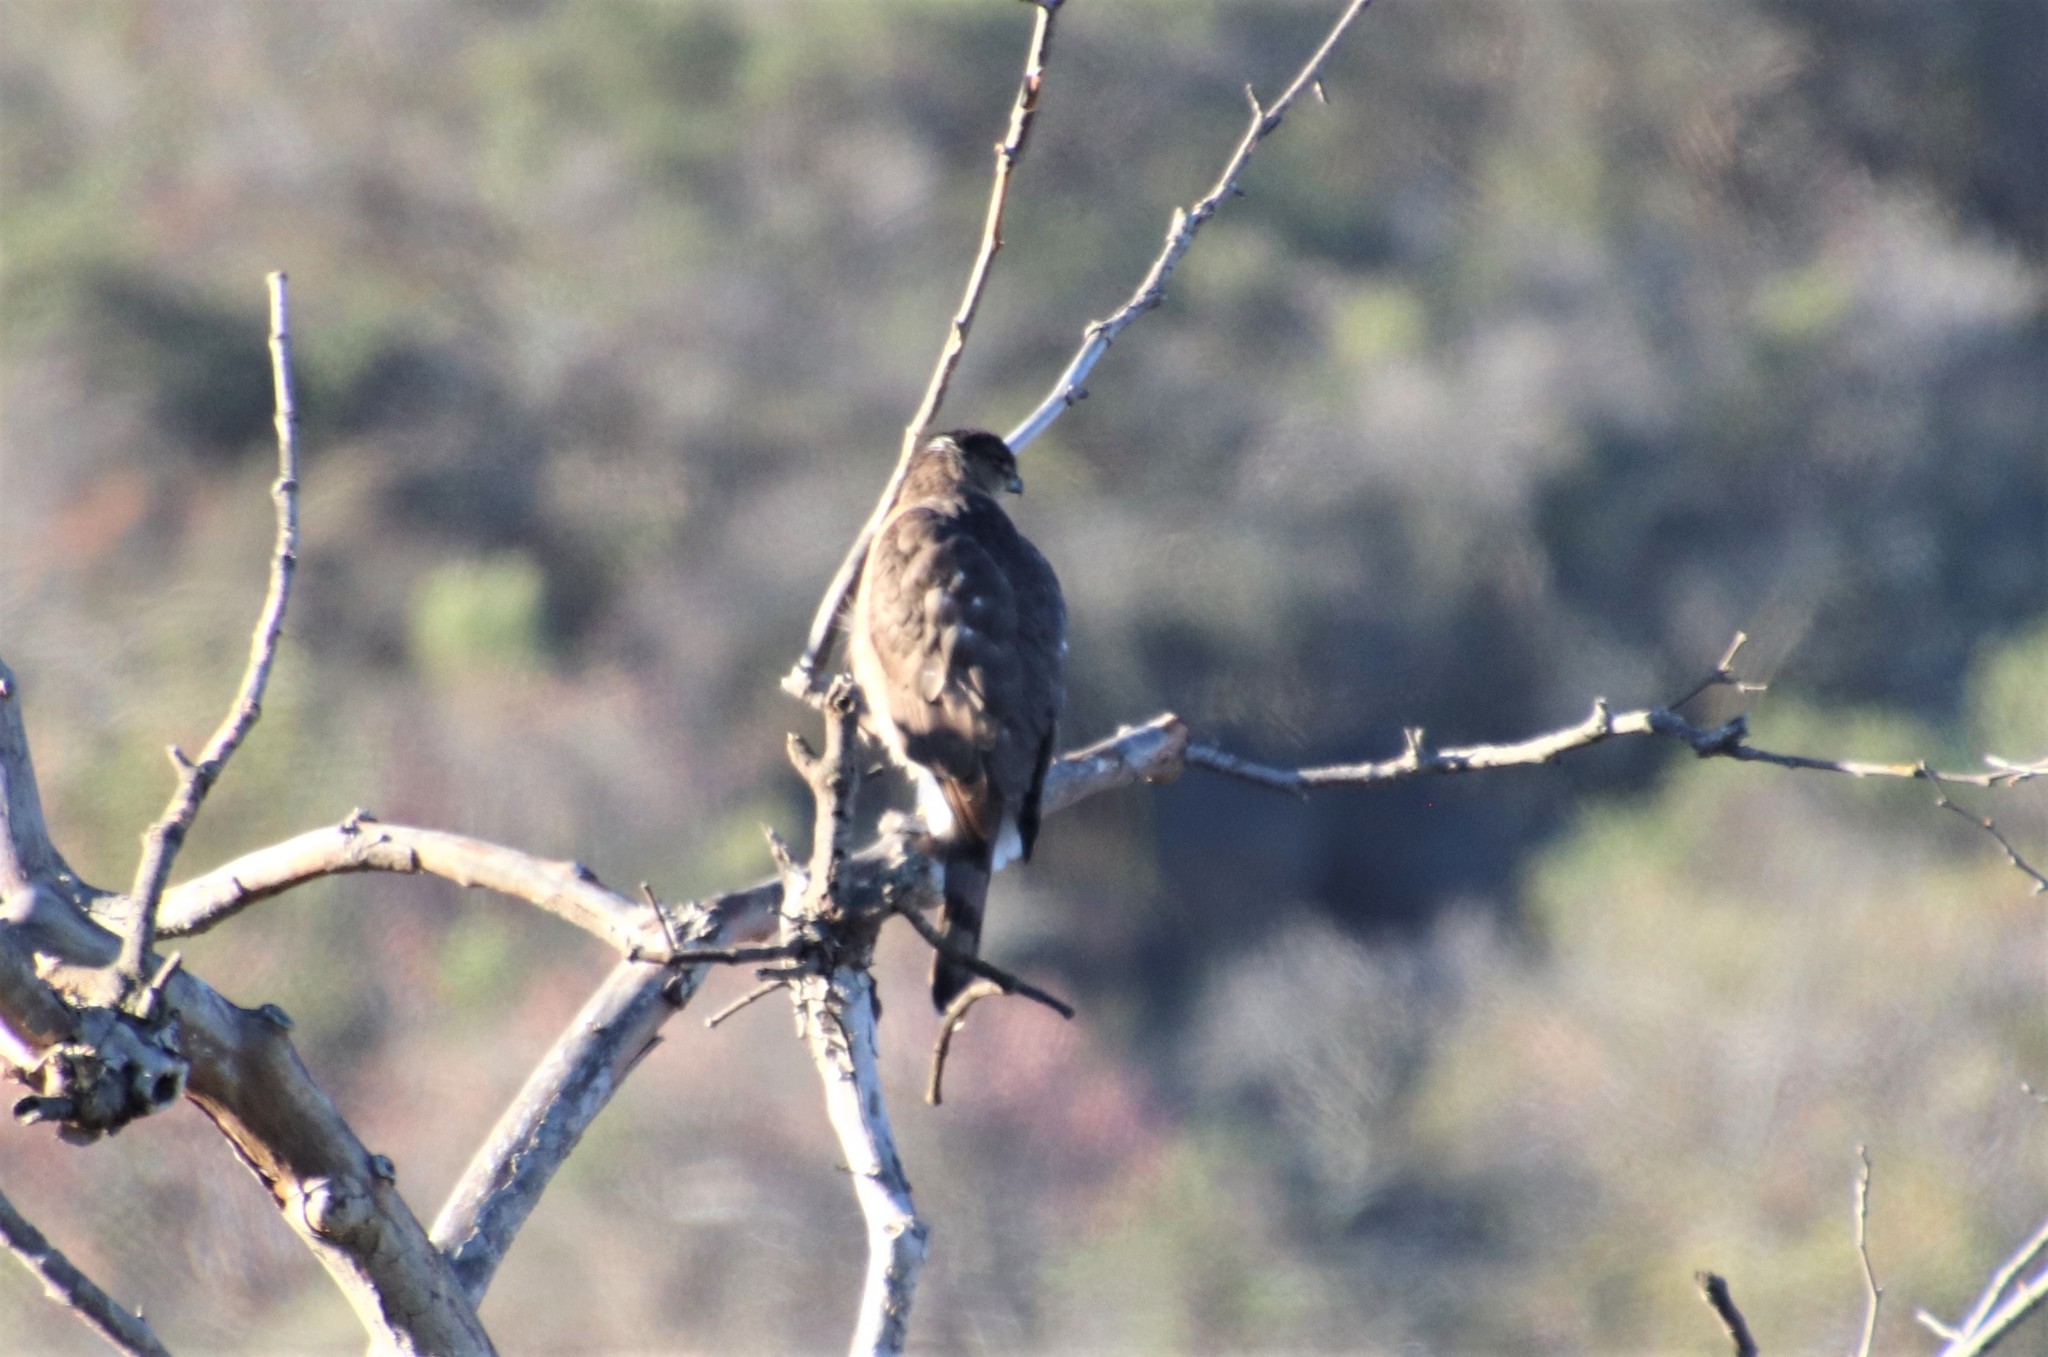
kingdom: Animalia
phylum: Chordata
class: Aves
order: Accipitriformes
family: Accipitridae
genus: Accipiter
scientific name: Accipiter cooperii
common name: Cooper's hawk
